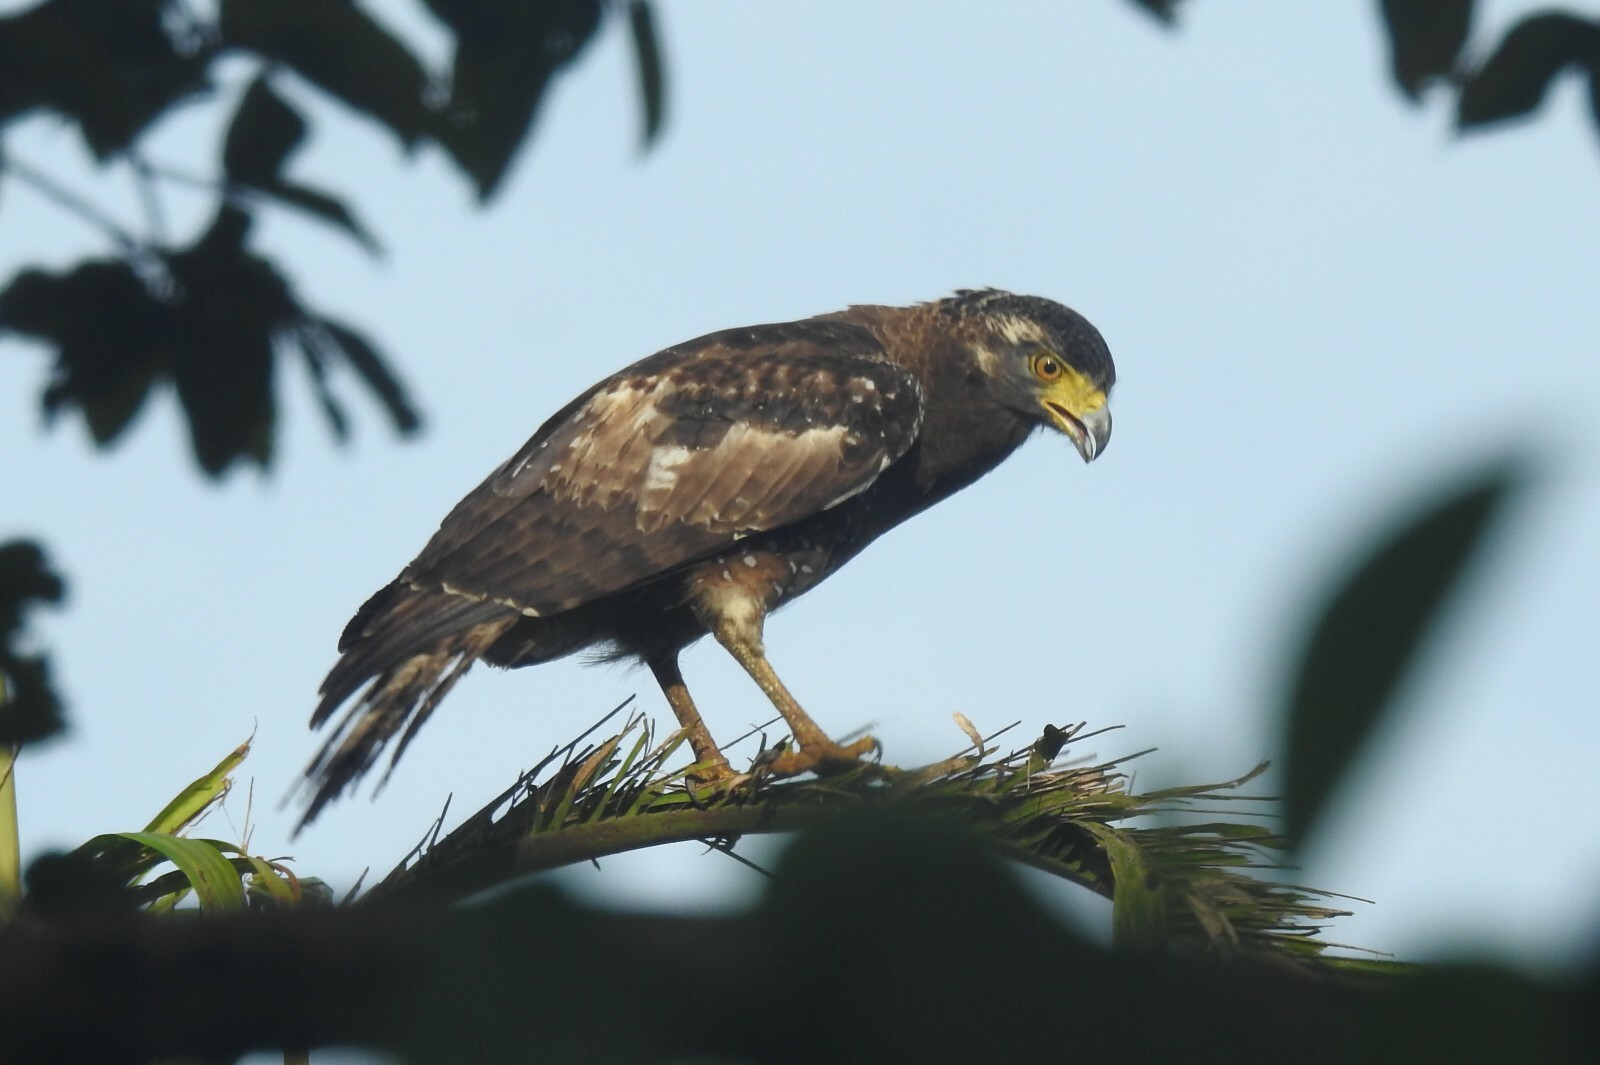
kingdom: Animalia
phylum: Chordata
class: Aves
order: Accipitriformes
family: Accipitridae
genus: Spilornis
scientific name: Spilornis cheela
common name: Crested serpent eagle
